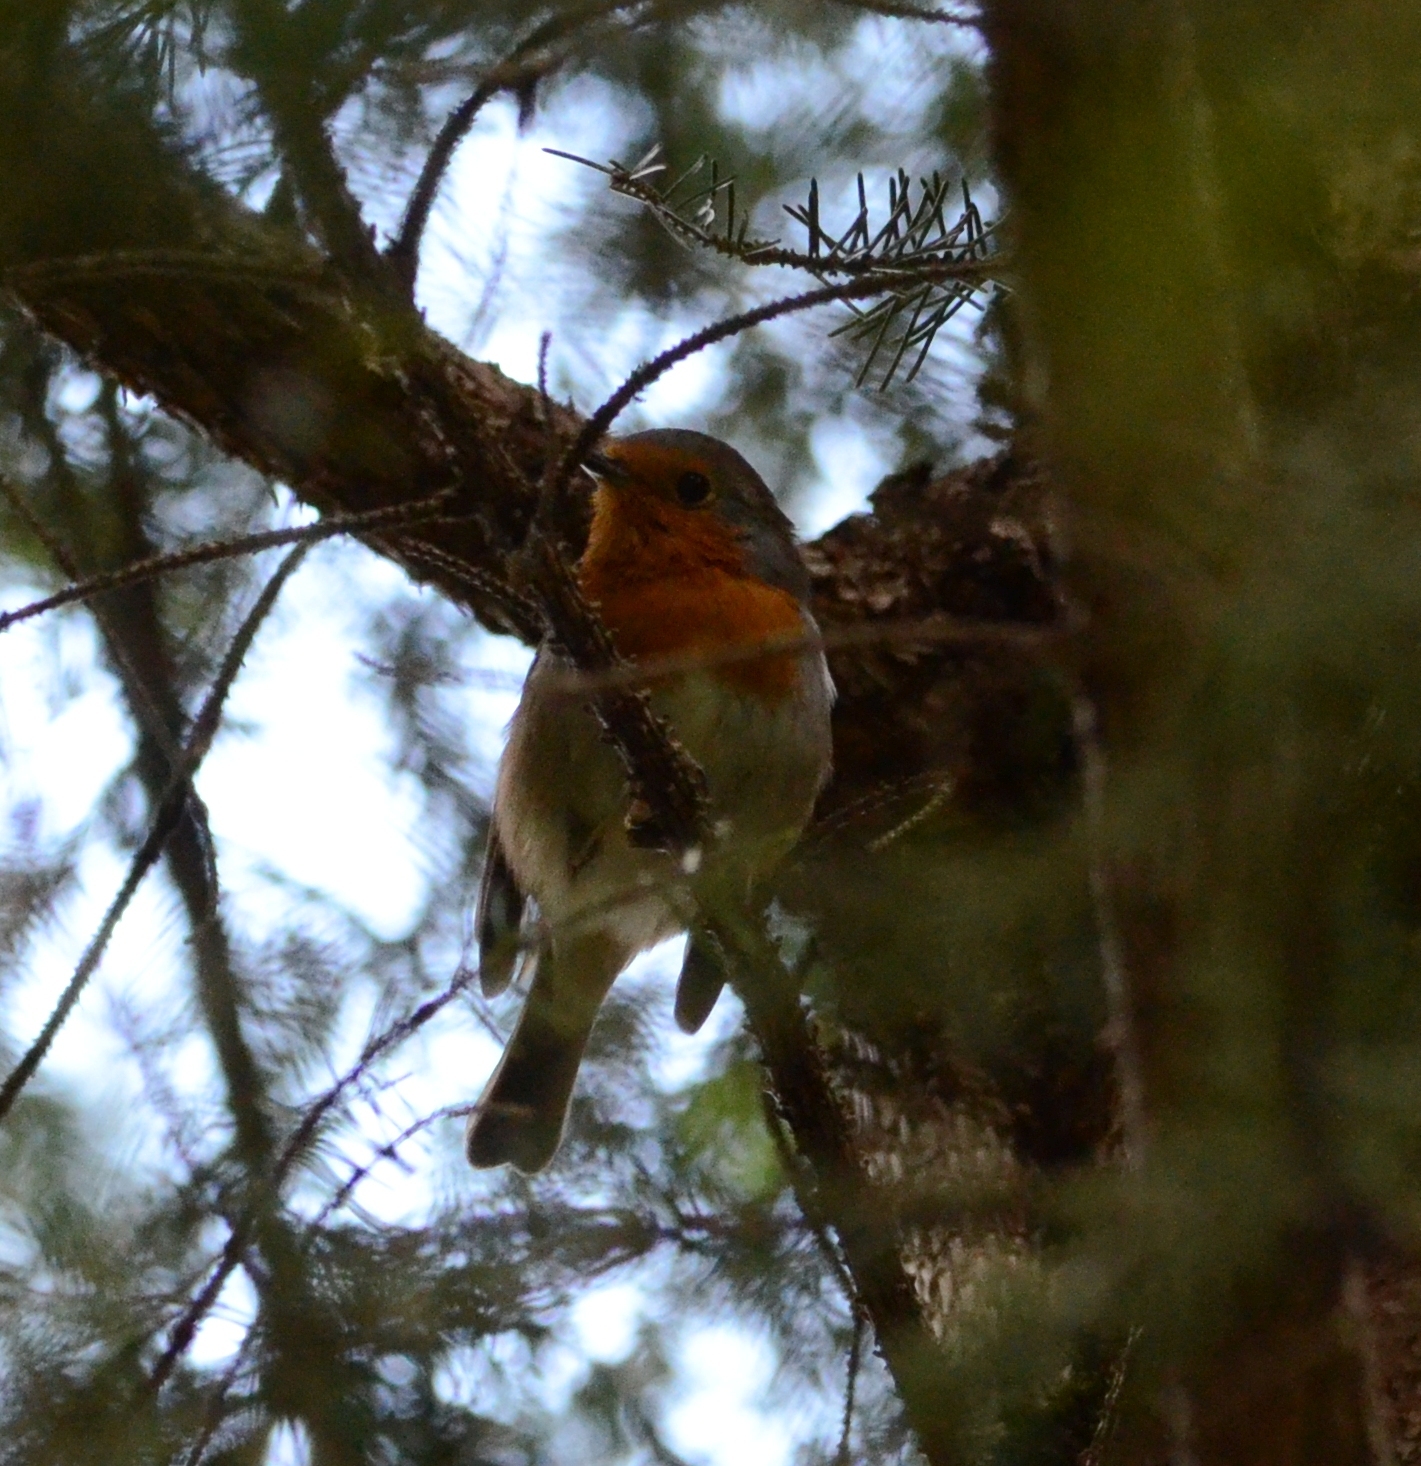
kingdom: Animalia
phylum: Chordata
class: Aves
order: Passeriformes
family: Muscicapidae
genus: Erithacus
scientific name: Erithacus rubecula
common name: European robin
